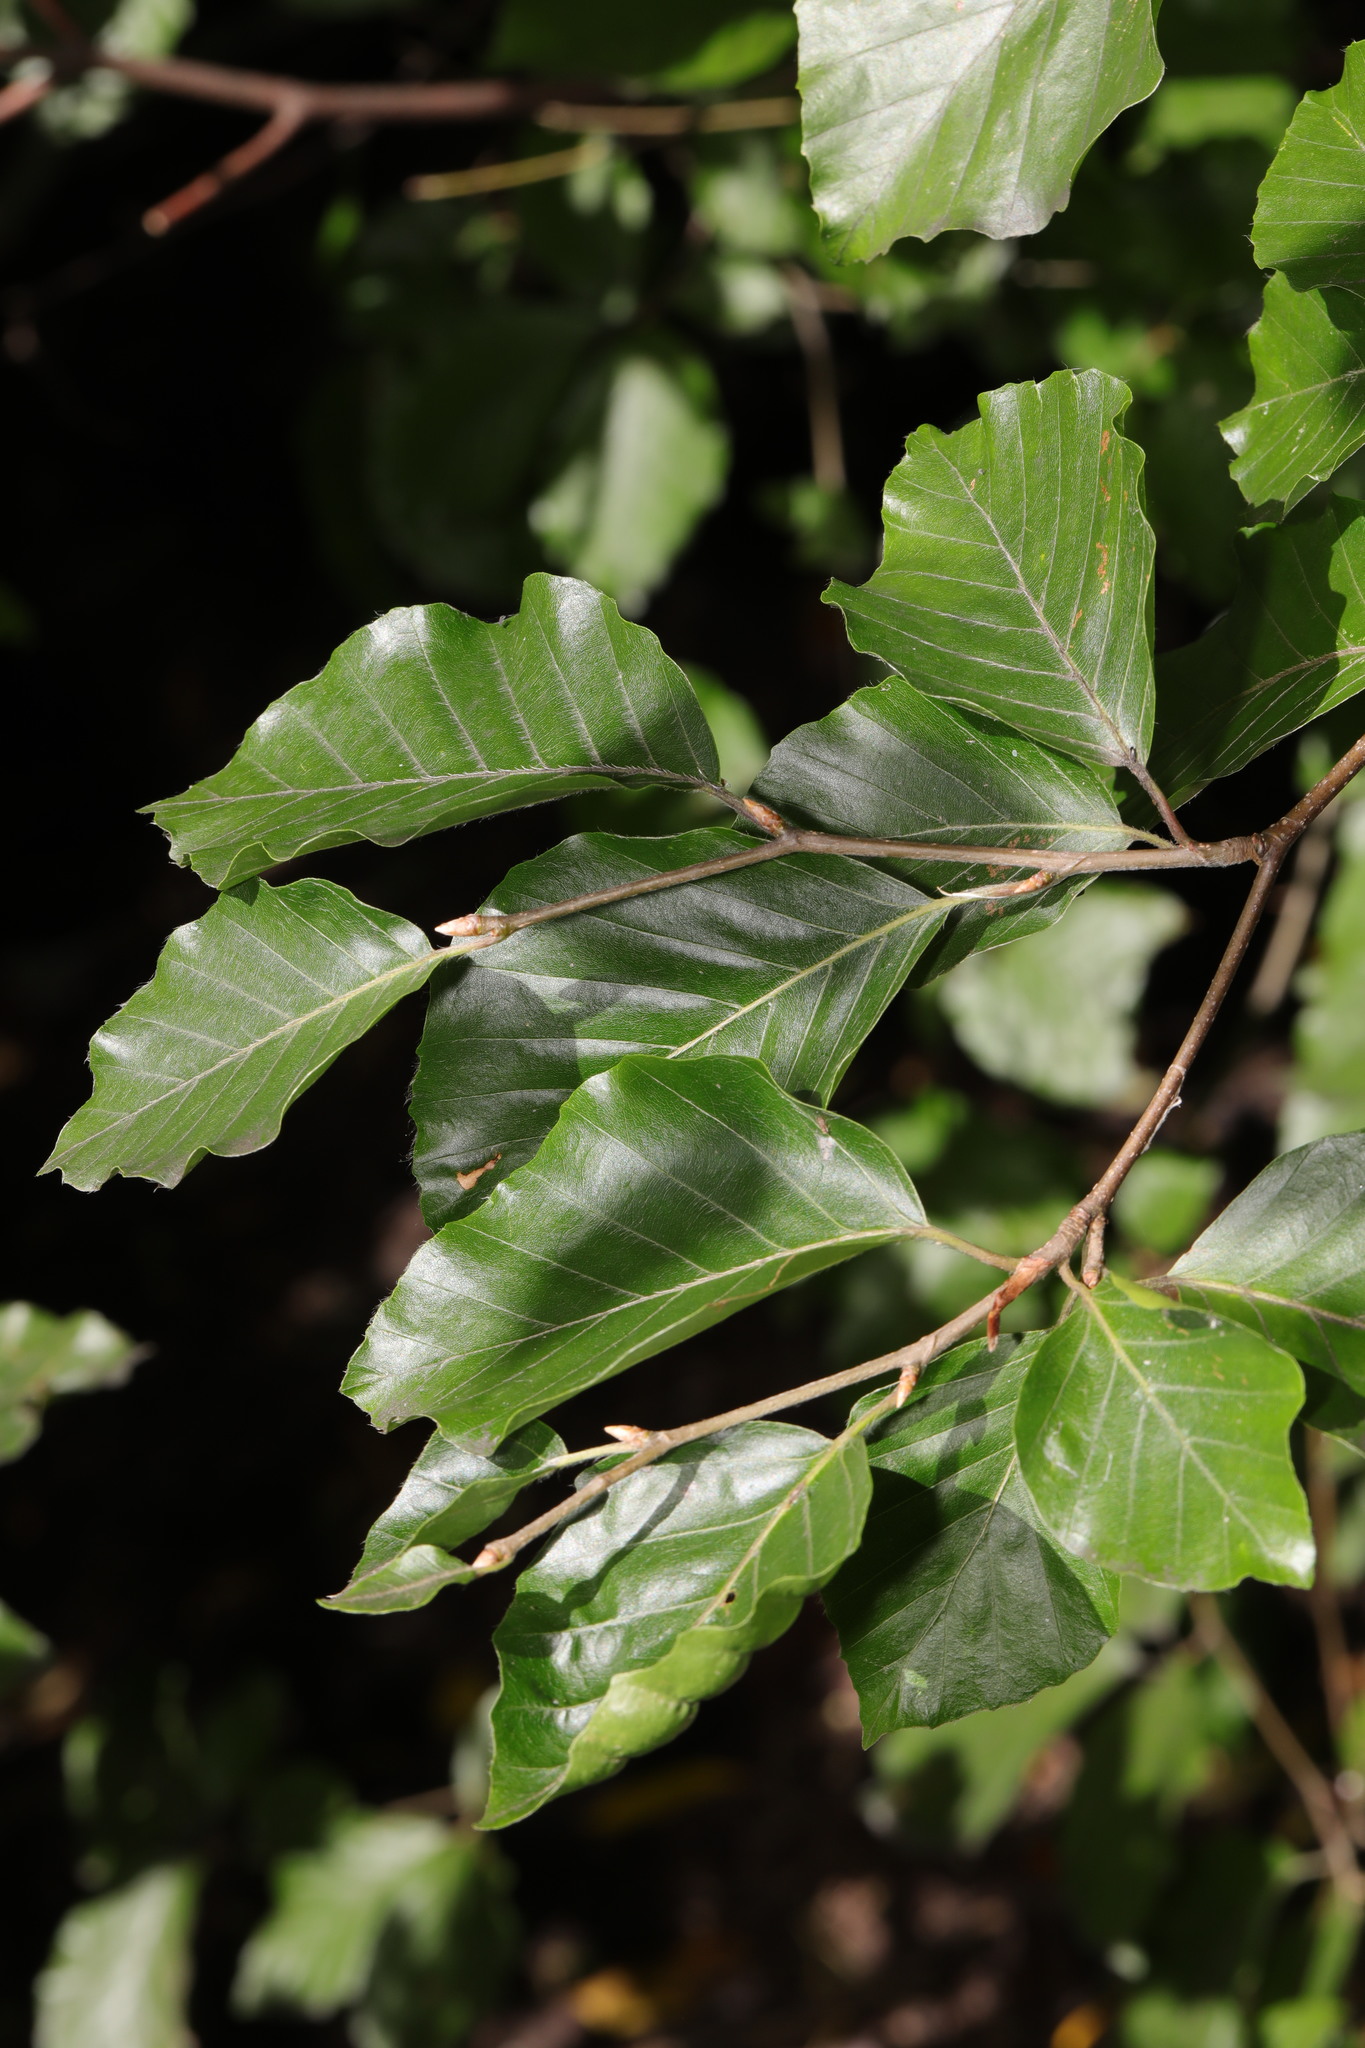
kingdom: Plantae
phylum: Tracheophyta
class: Magnoliopsida
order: Fagales
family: Fagaceae
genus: Fagus
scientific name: Fagus sylvatica
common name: Beech
